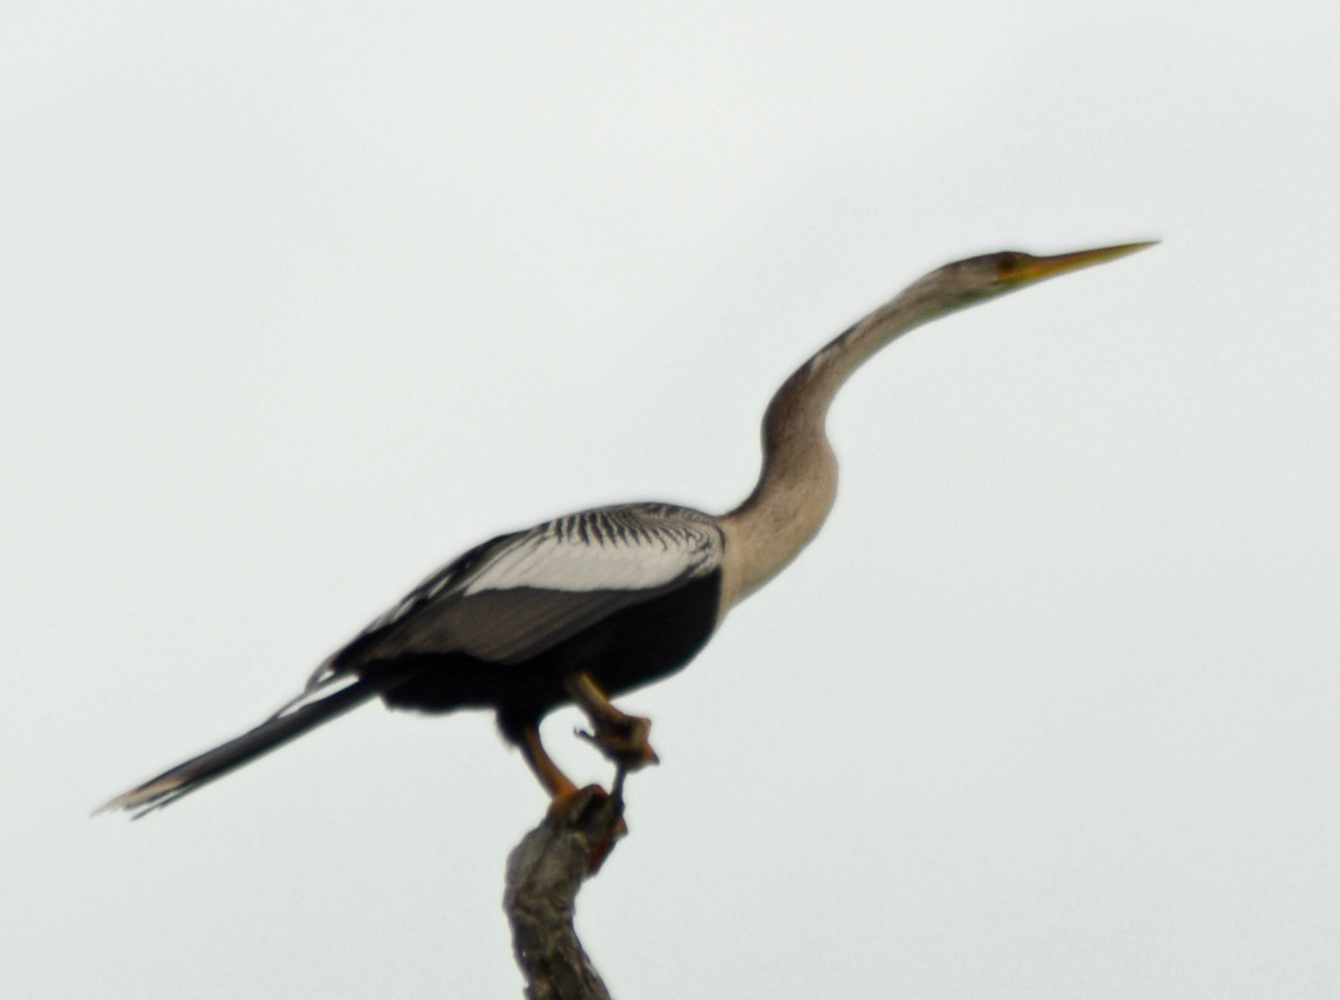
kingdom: Animalia
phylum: Chordata
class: Aves
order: Suliformes
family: Anhingidae
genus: Anhinga
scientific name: Anhinga anhinga
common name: Anhinga
